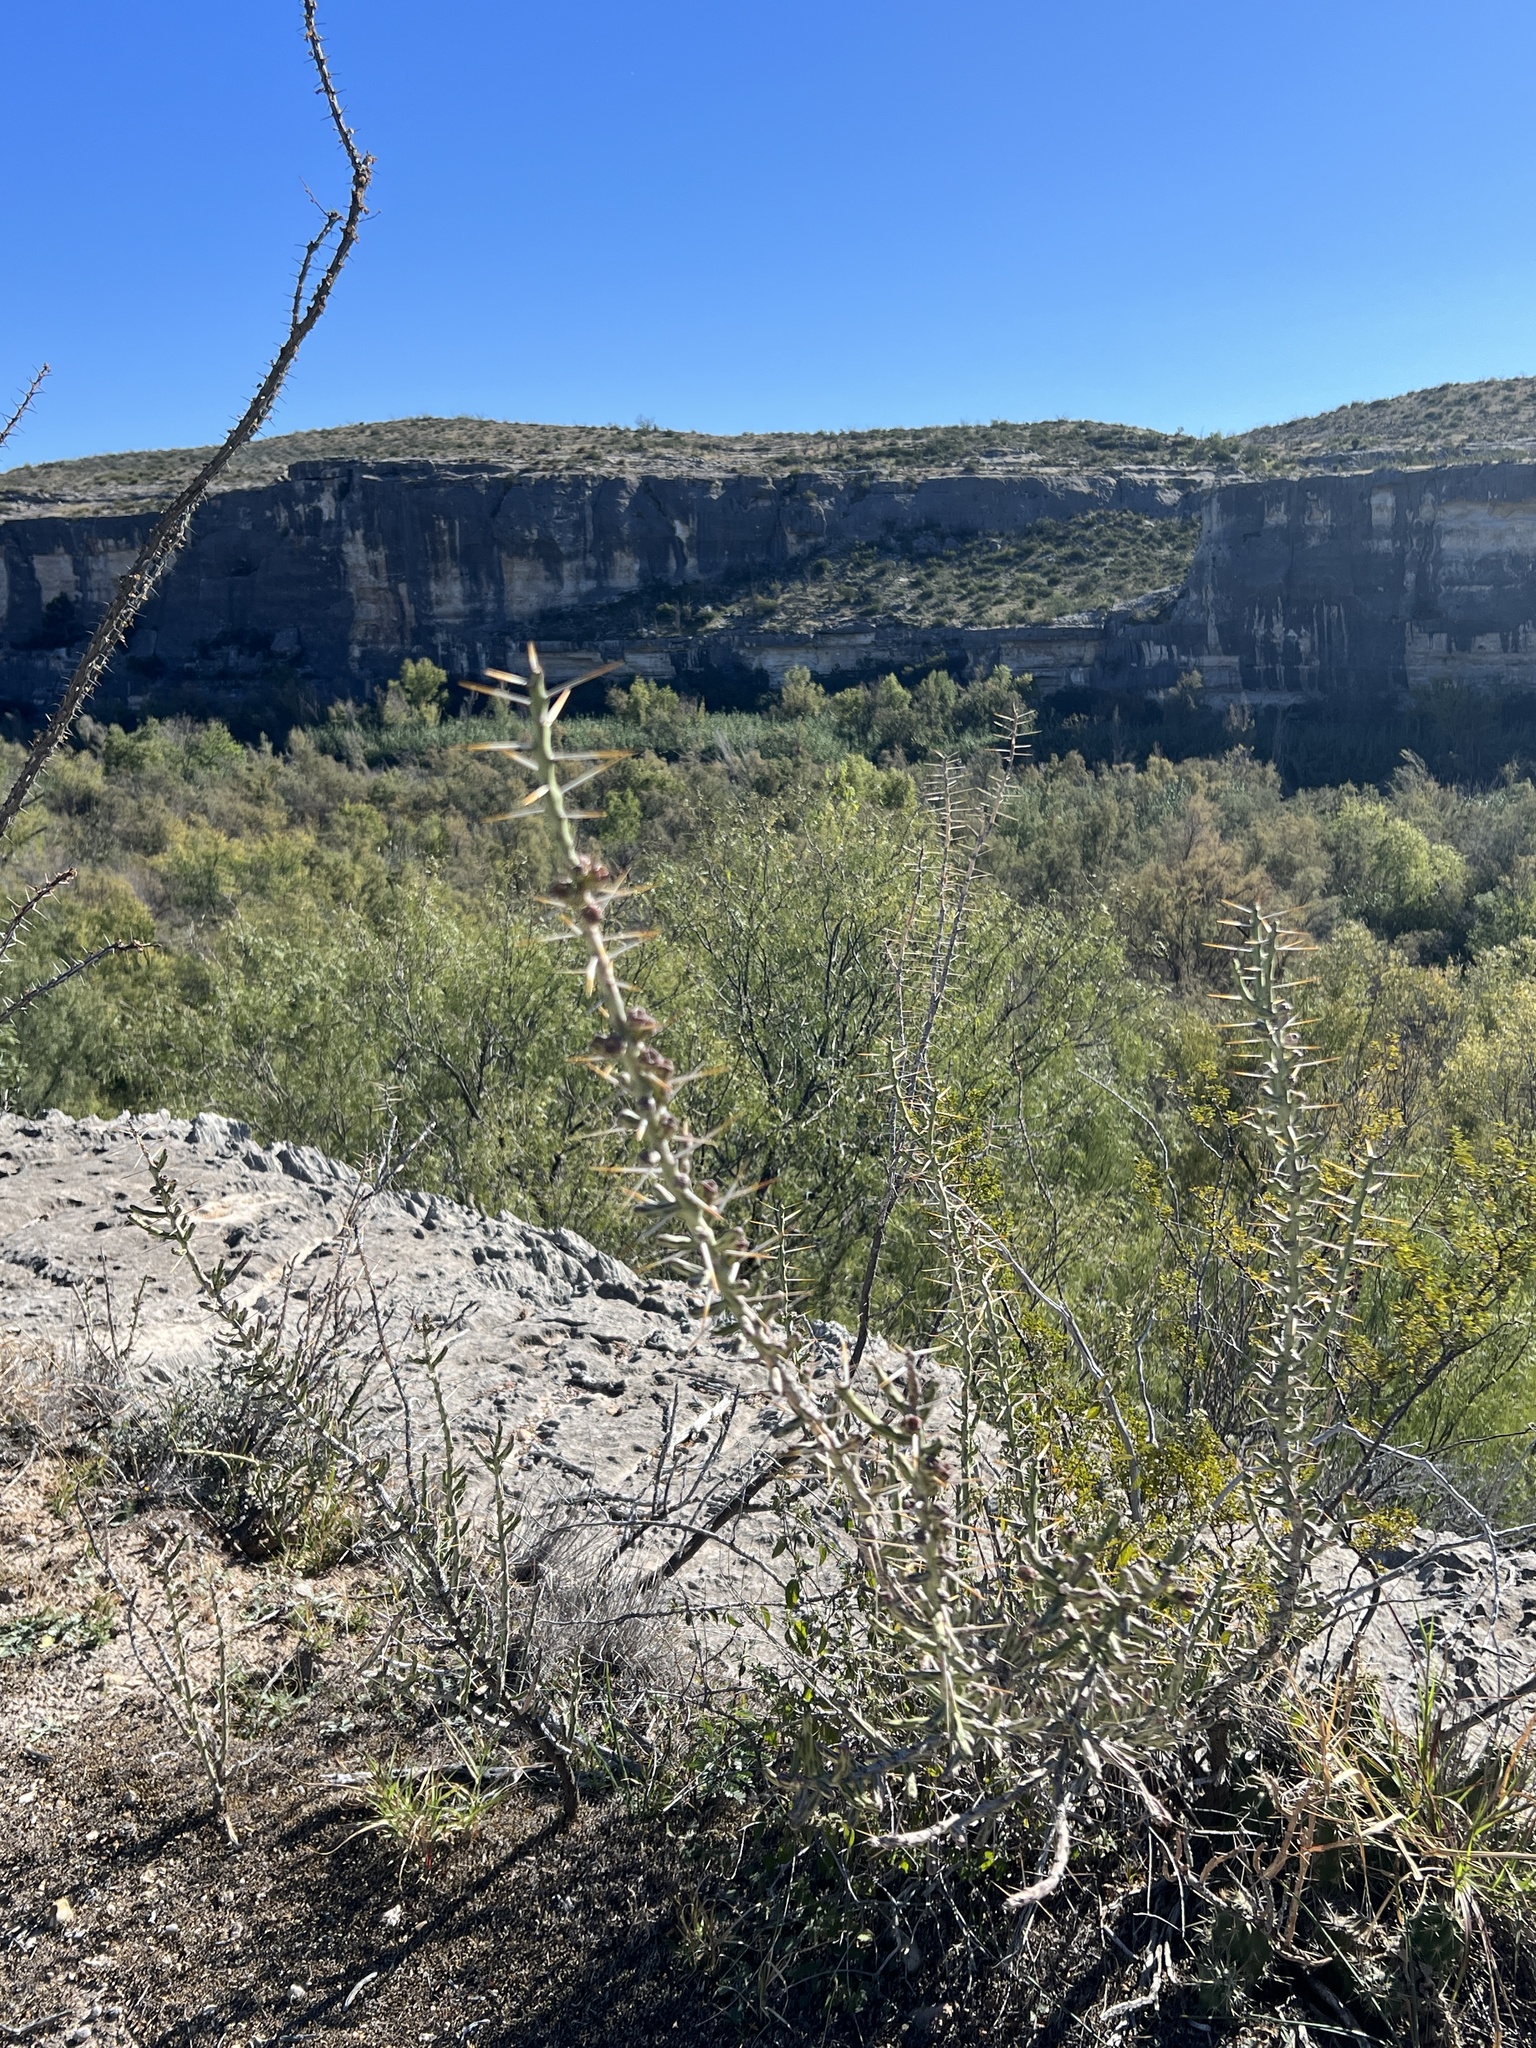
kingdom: Plantae
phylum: Tracheophyta
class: Magnoliopsida
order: Caryophyllales
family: Cactaceae
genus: Cylindropuntia
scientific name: Cylindropuntia leptocaulis
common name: Christmas cactus
